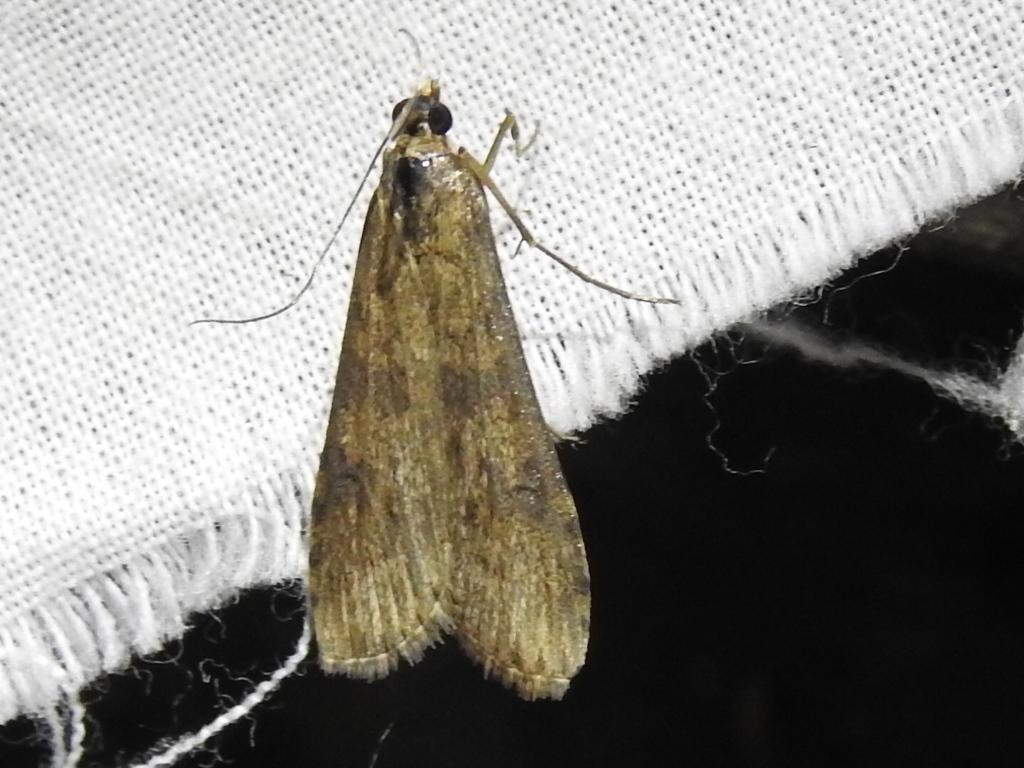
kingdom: Animalia
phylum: Arthropoda
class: Insecta
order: Lepidoptera
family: Crambidae
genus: Nomophila
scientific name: Nomophila nearctica
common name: American rush veneer
